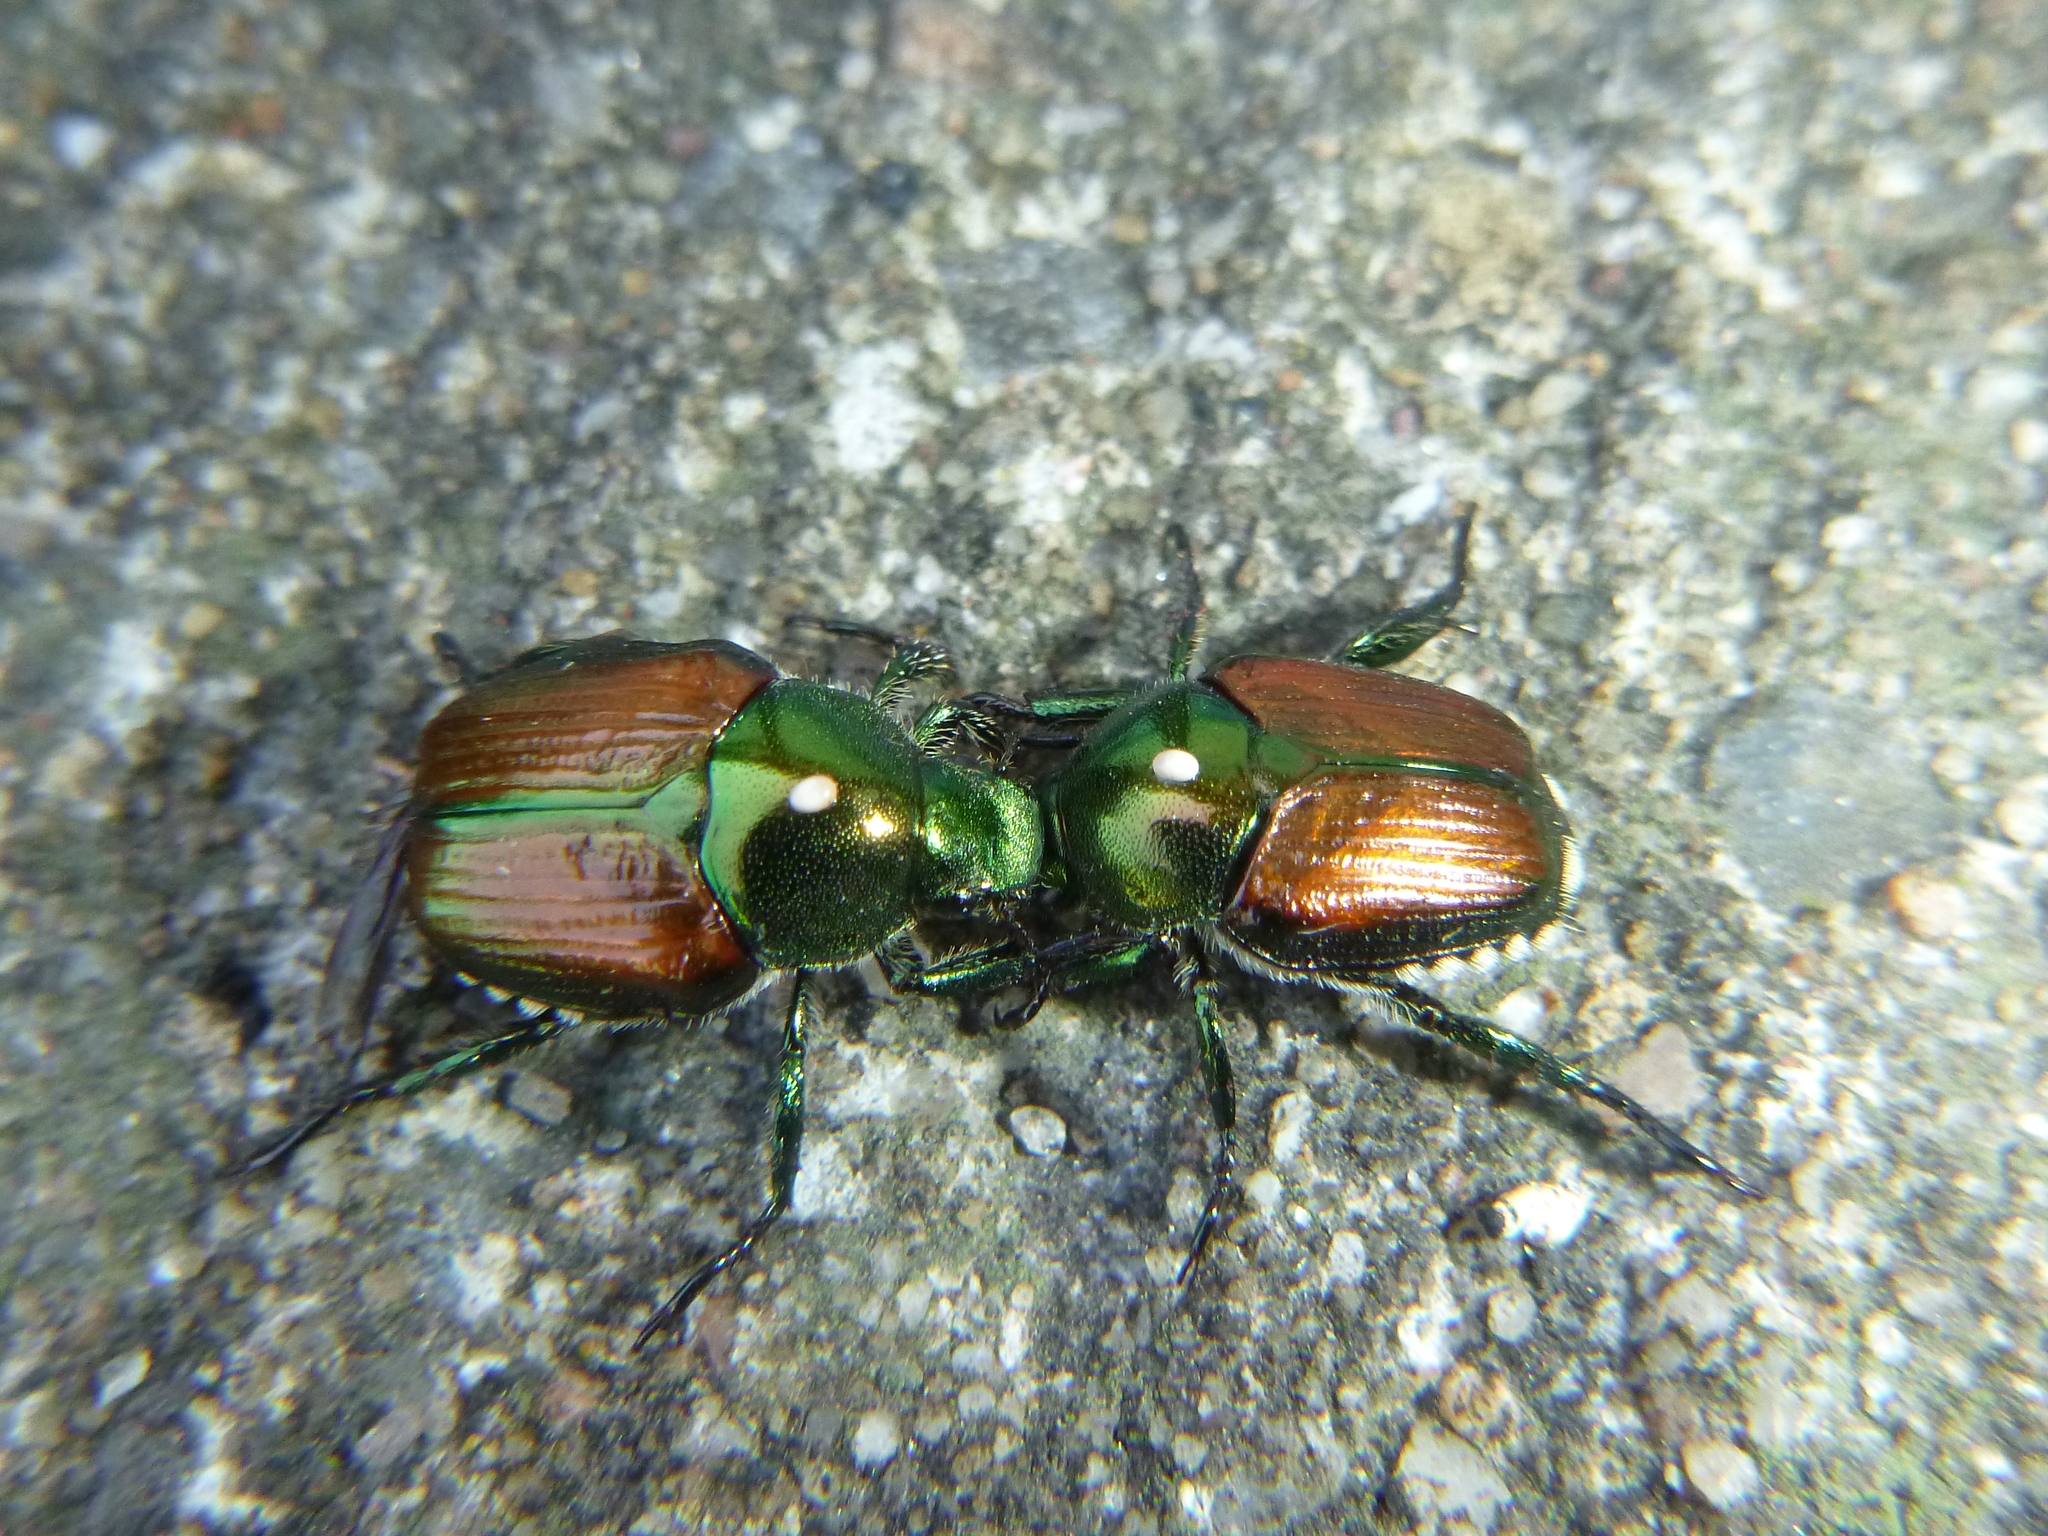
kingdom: Animalia
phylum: Arthropoda
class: Insecta
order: Coleoptera
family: Scarabaeidae
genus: Popillia
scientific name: Popillia japonica
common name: Japanese beetle
